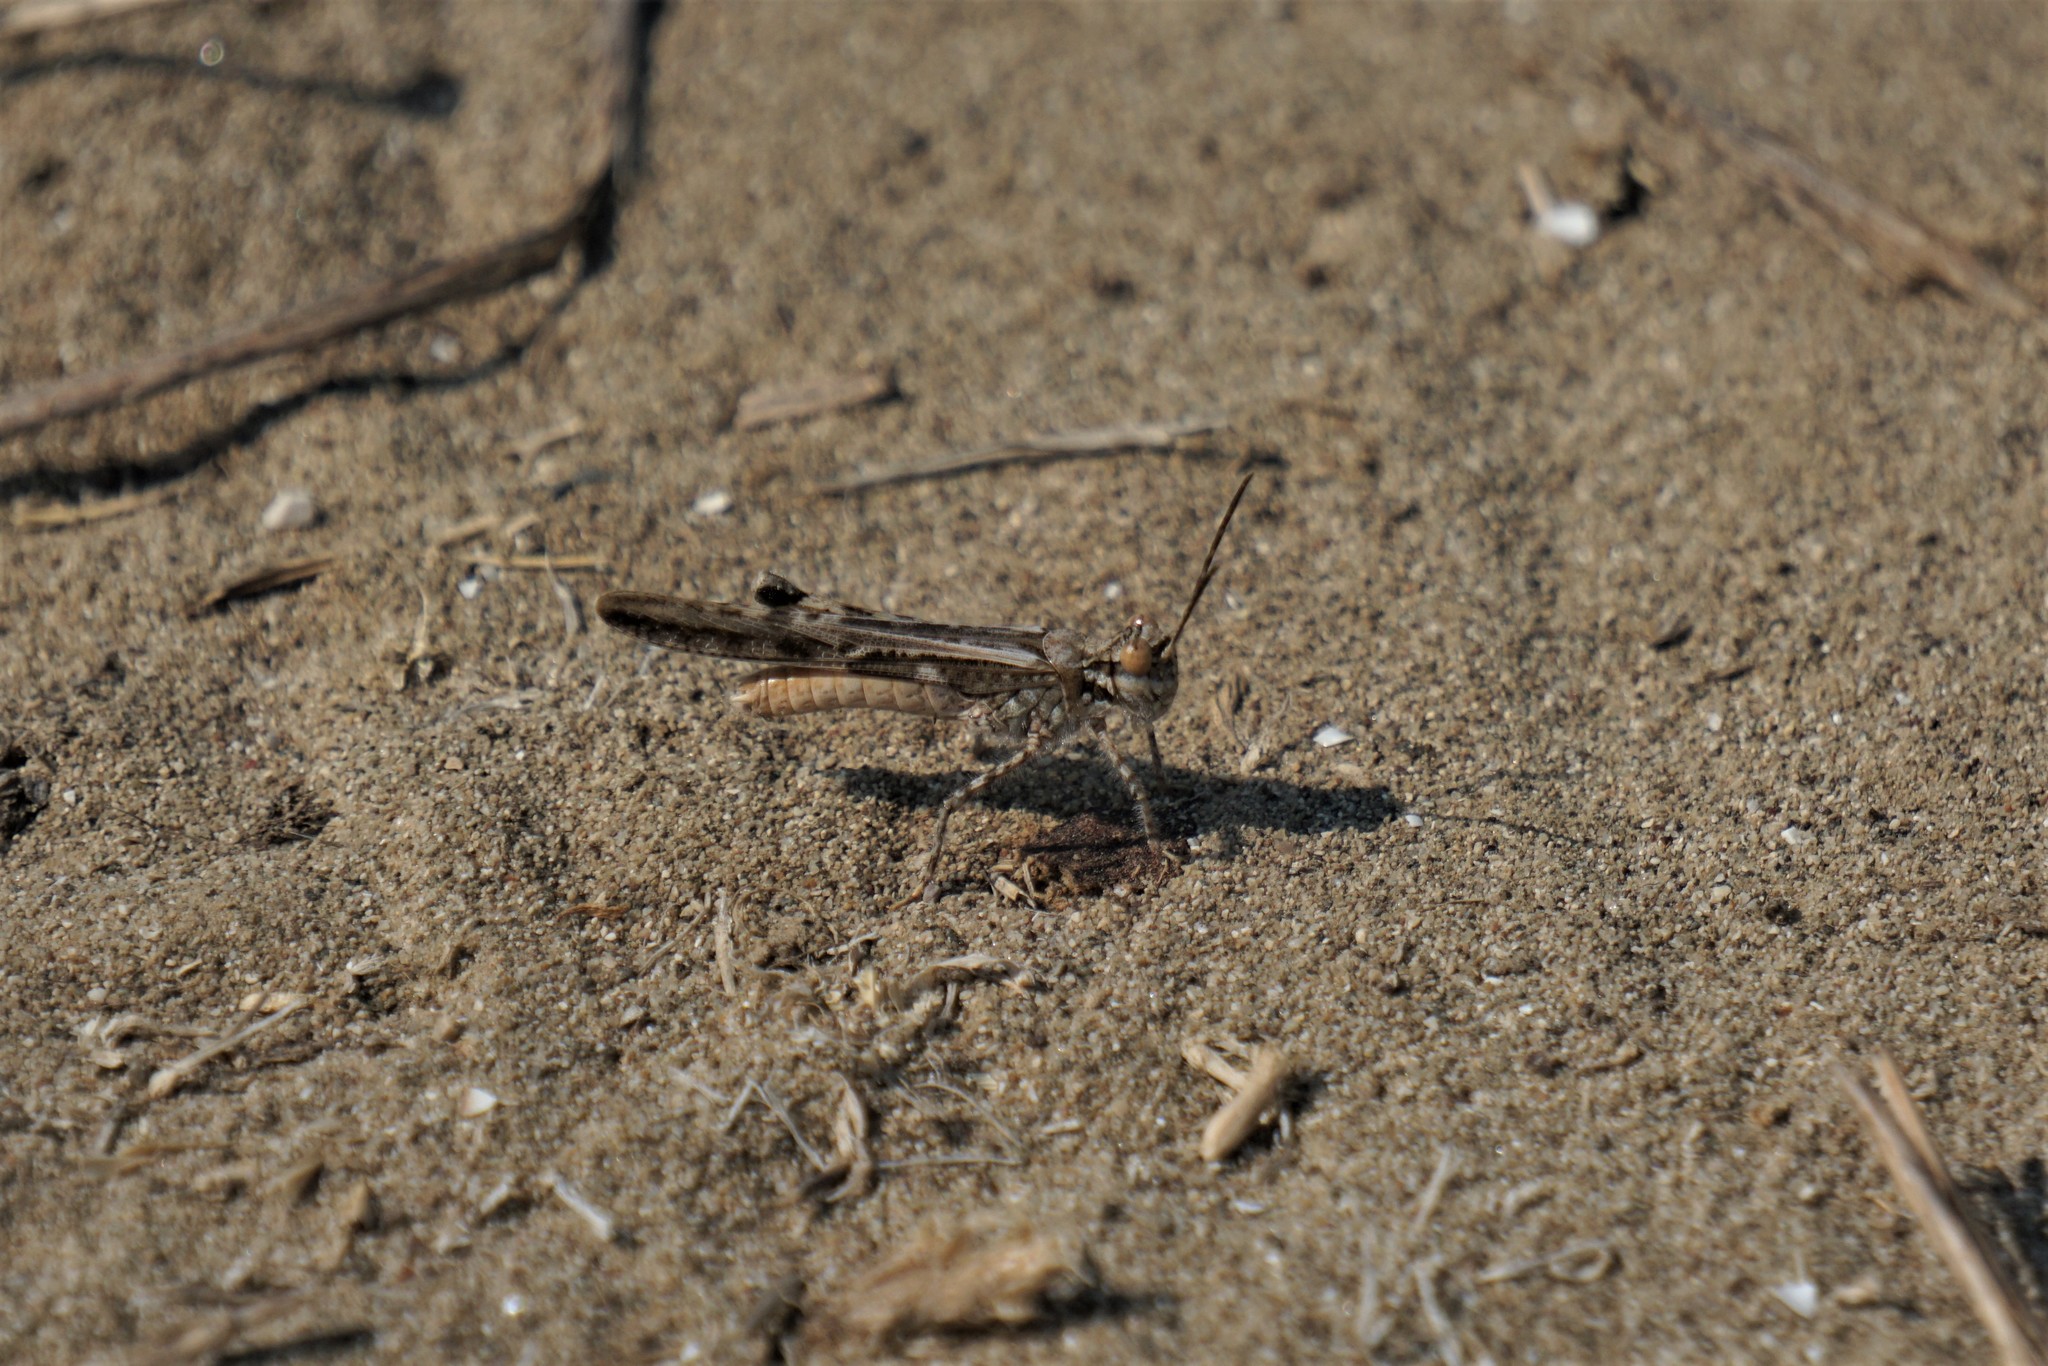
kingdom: Animalia
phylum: Arthropoda
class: Insecta
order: Orthoptera
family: Acrididae
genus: Acrotylus
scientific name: Acrotylus longipes
